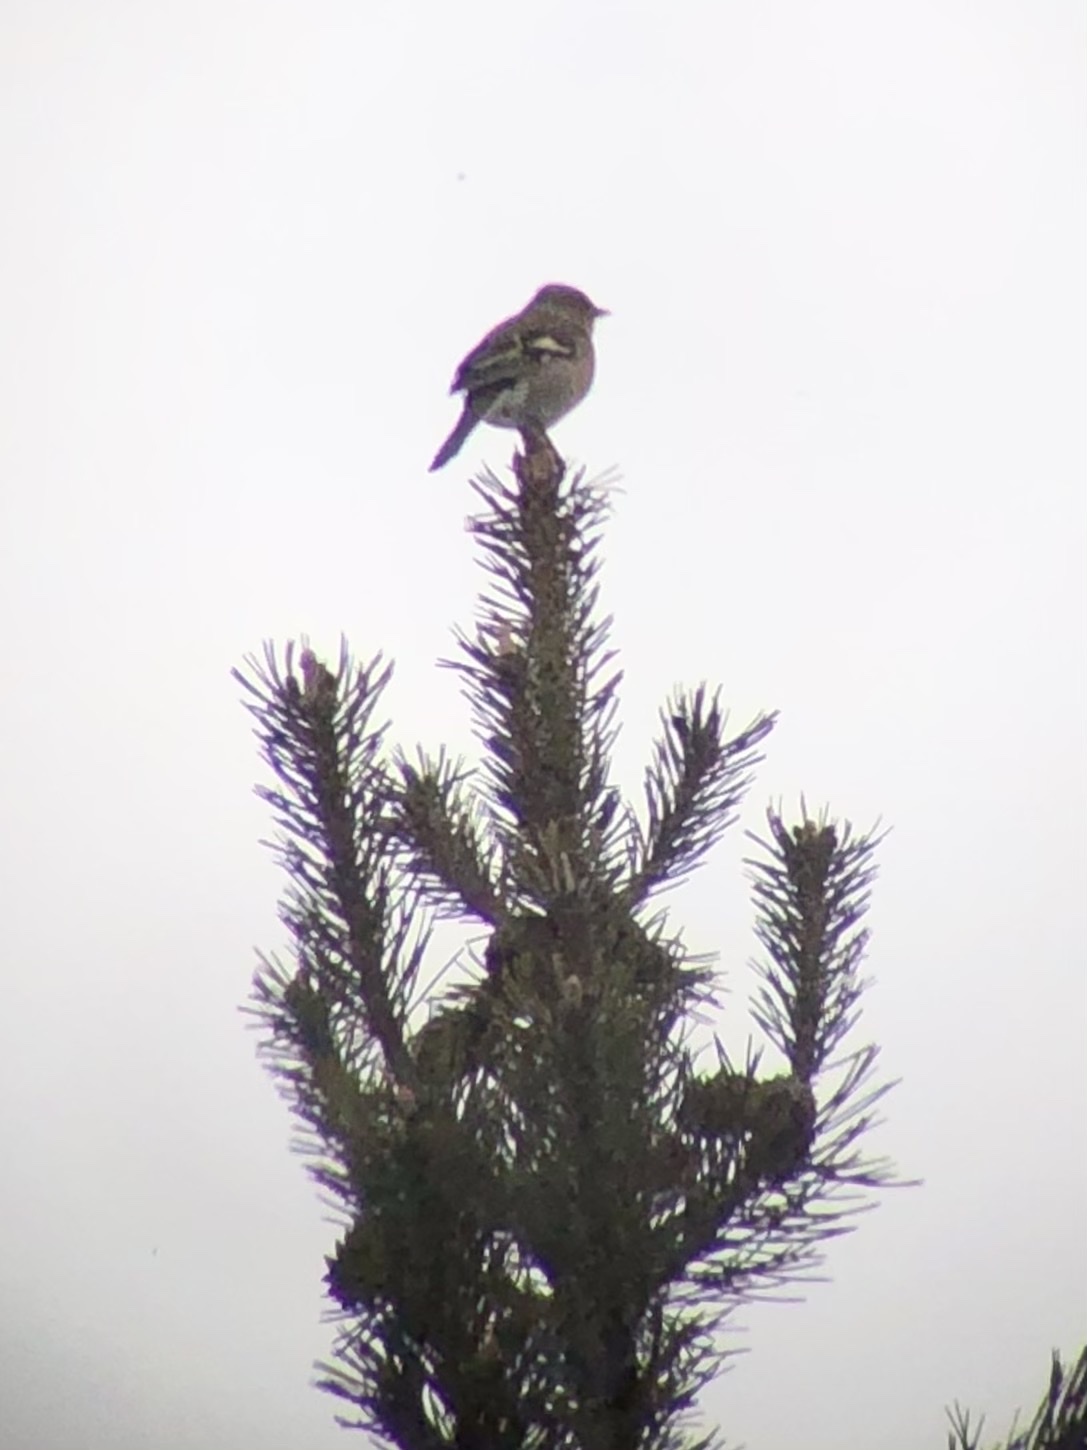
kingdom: Animalia
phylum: Chordata
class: Aves
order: Passeriformes
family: Fringillidae
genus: Fringilla
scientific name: Fringilla coelebs
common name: Common chaffinch
